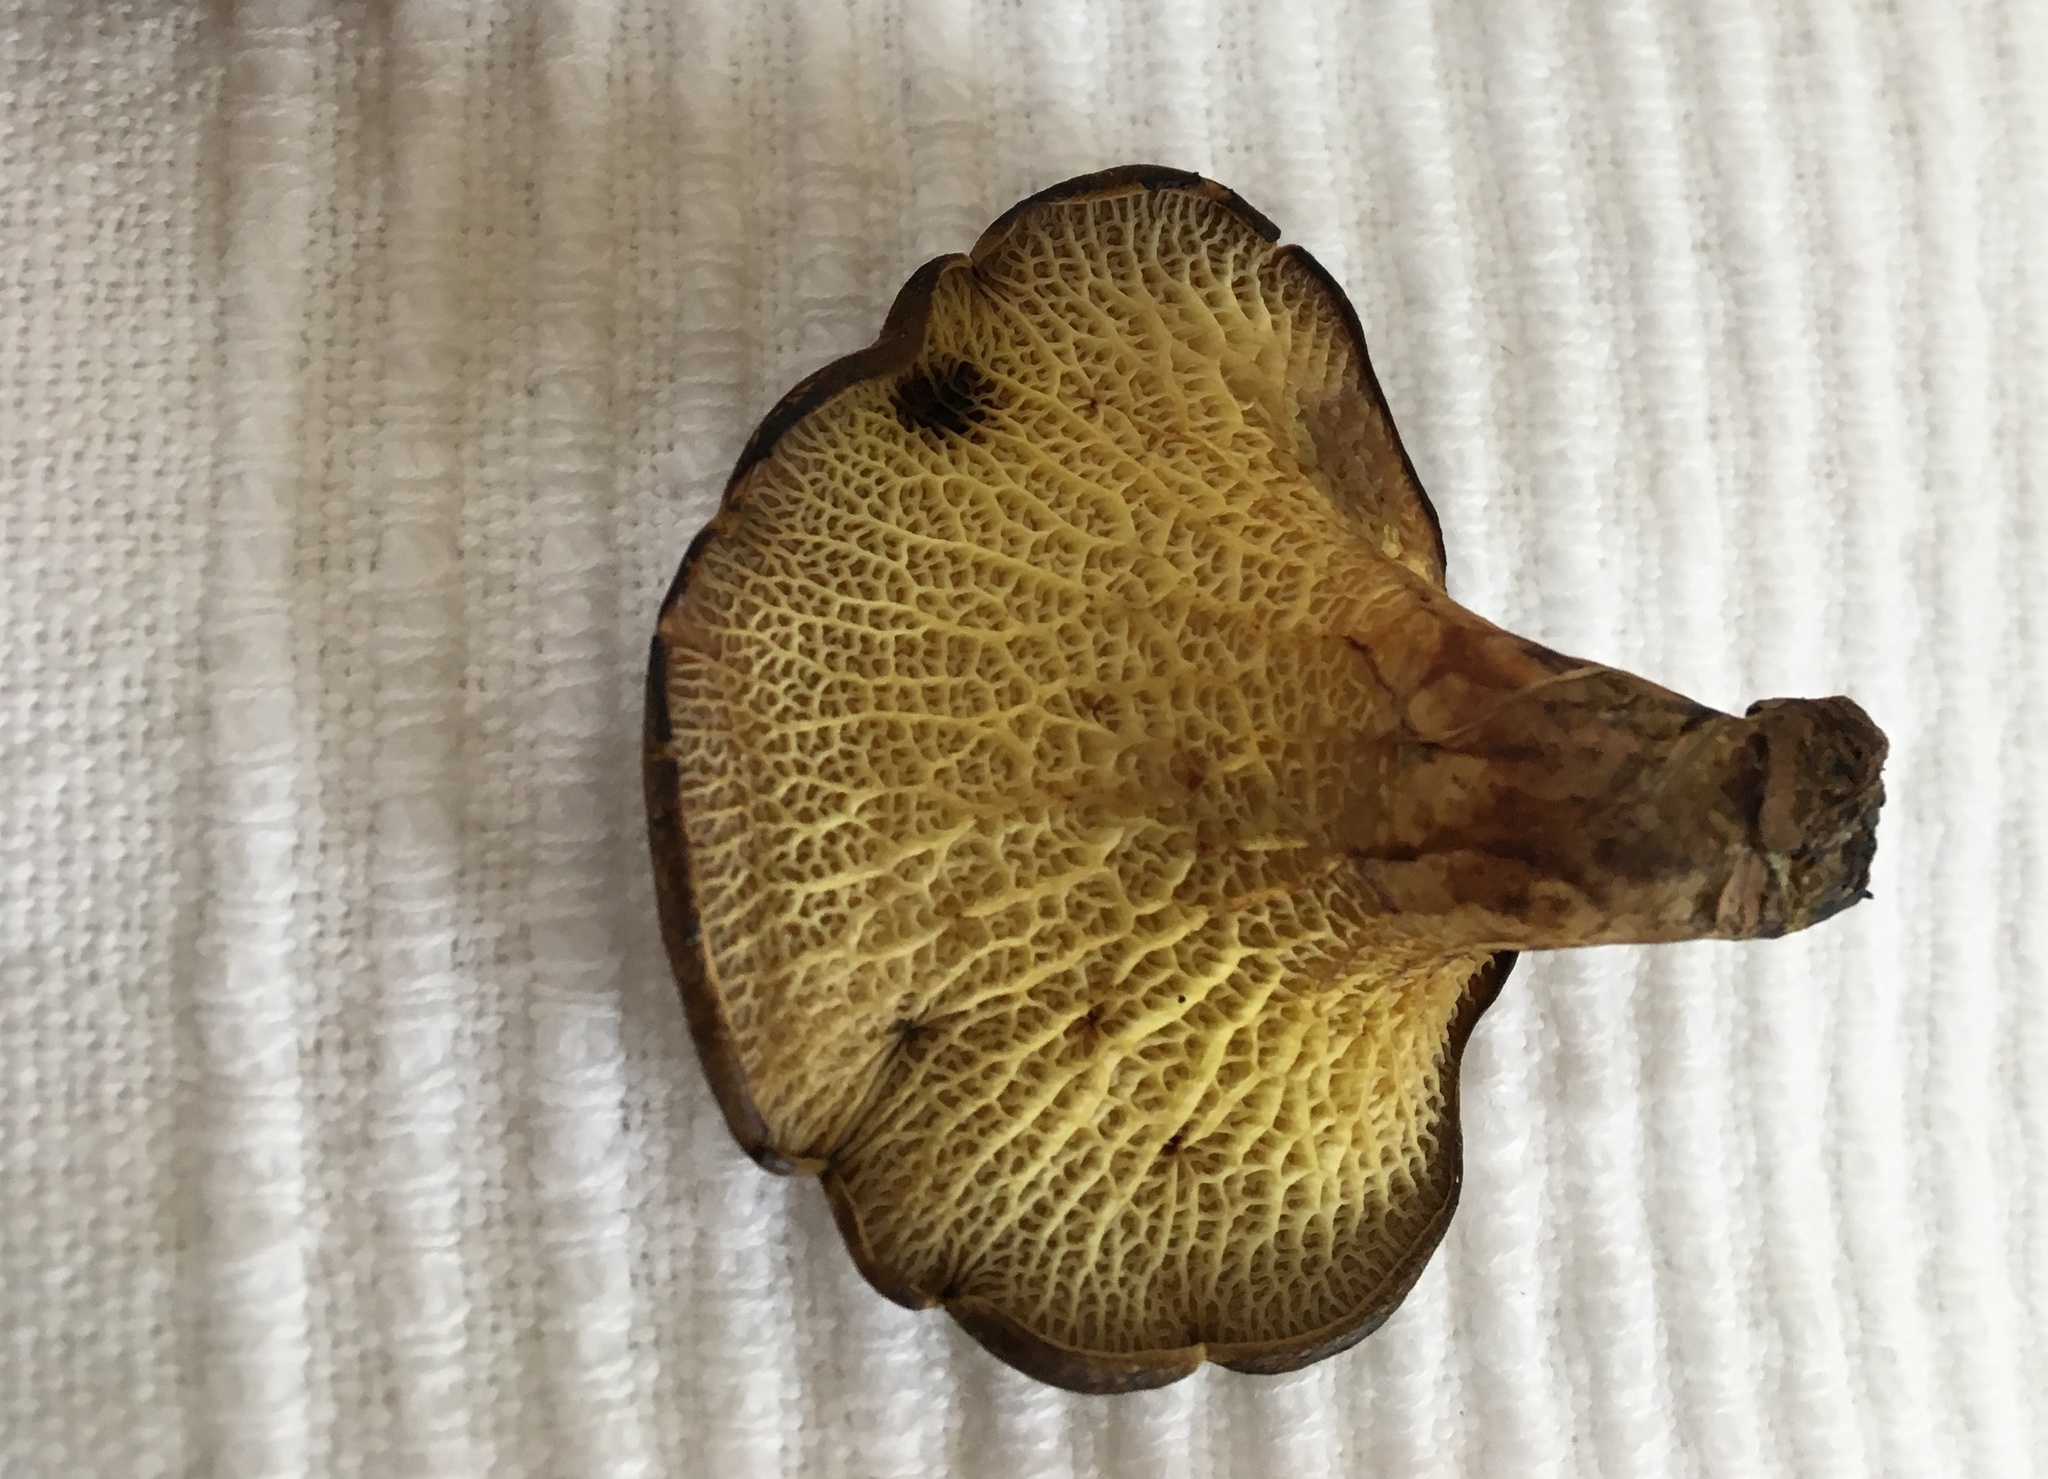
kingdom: Fungi
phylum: Basidiomycota
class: Agaricomycetes
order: Boletales
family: Boletinellaceae
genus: Boletinellus
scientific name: Boletinellus merulioides
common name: Ash tree bolete
